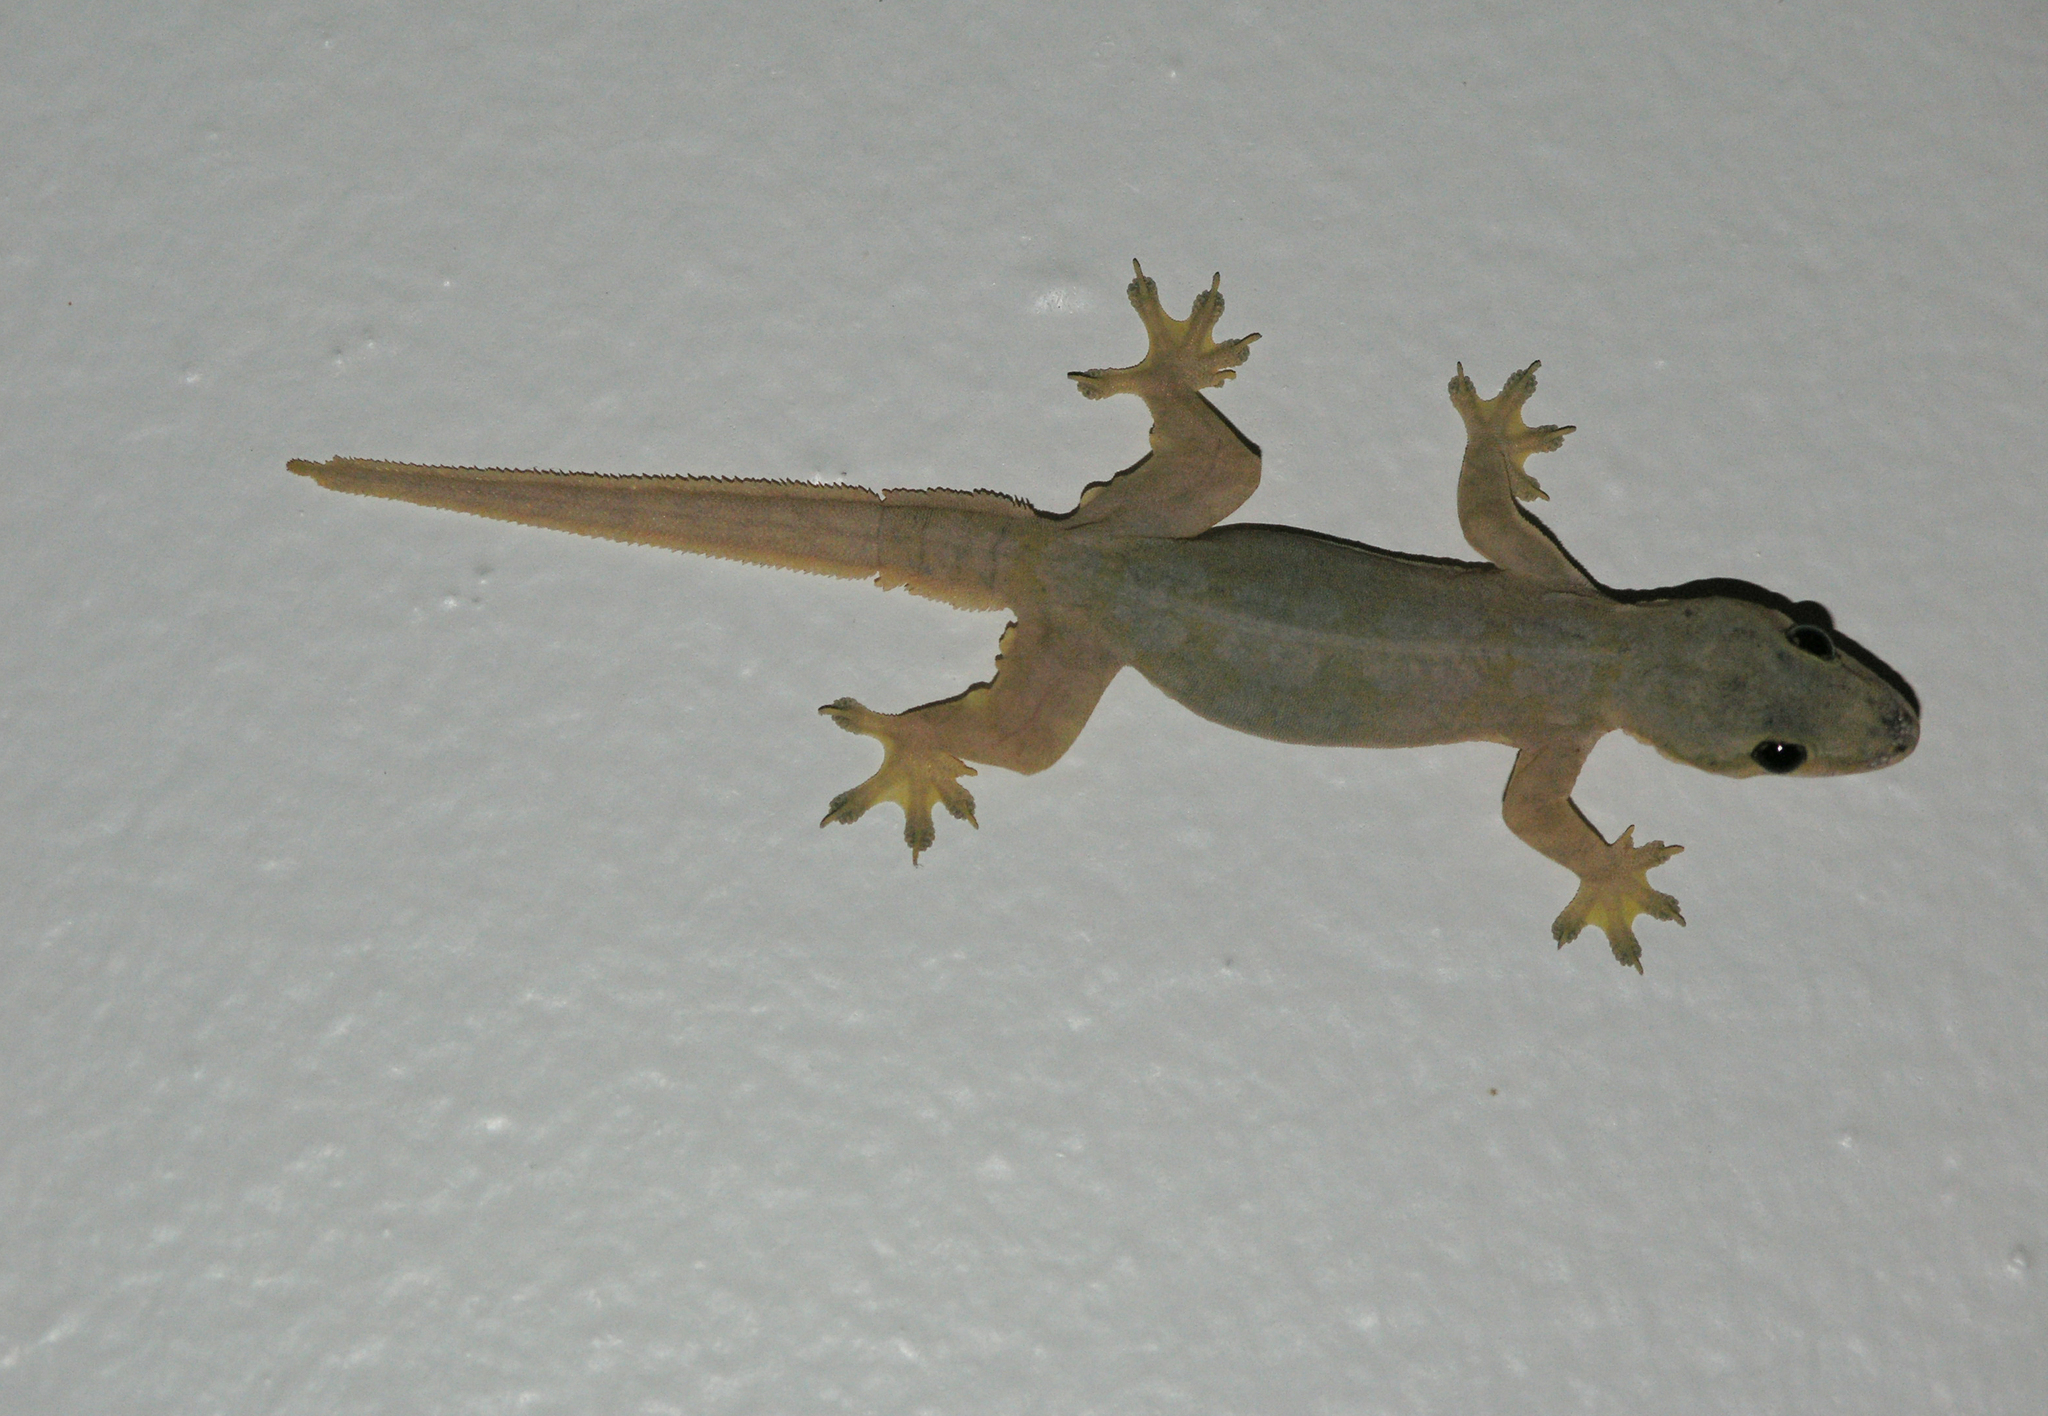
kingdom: Animalia
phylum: Chordata
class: Squamata
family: Gekkonidae
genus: Hemidactylus
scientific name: Hemidactylus platyurus
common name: Flat-tailed house gecko
